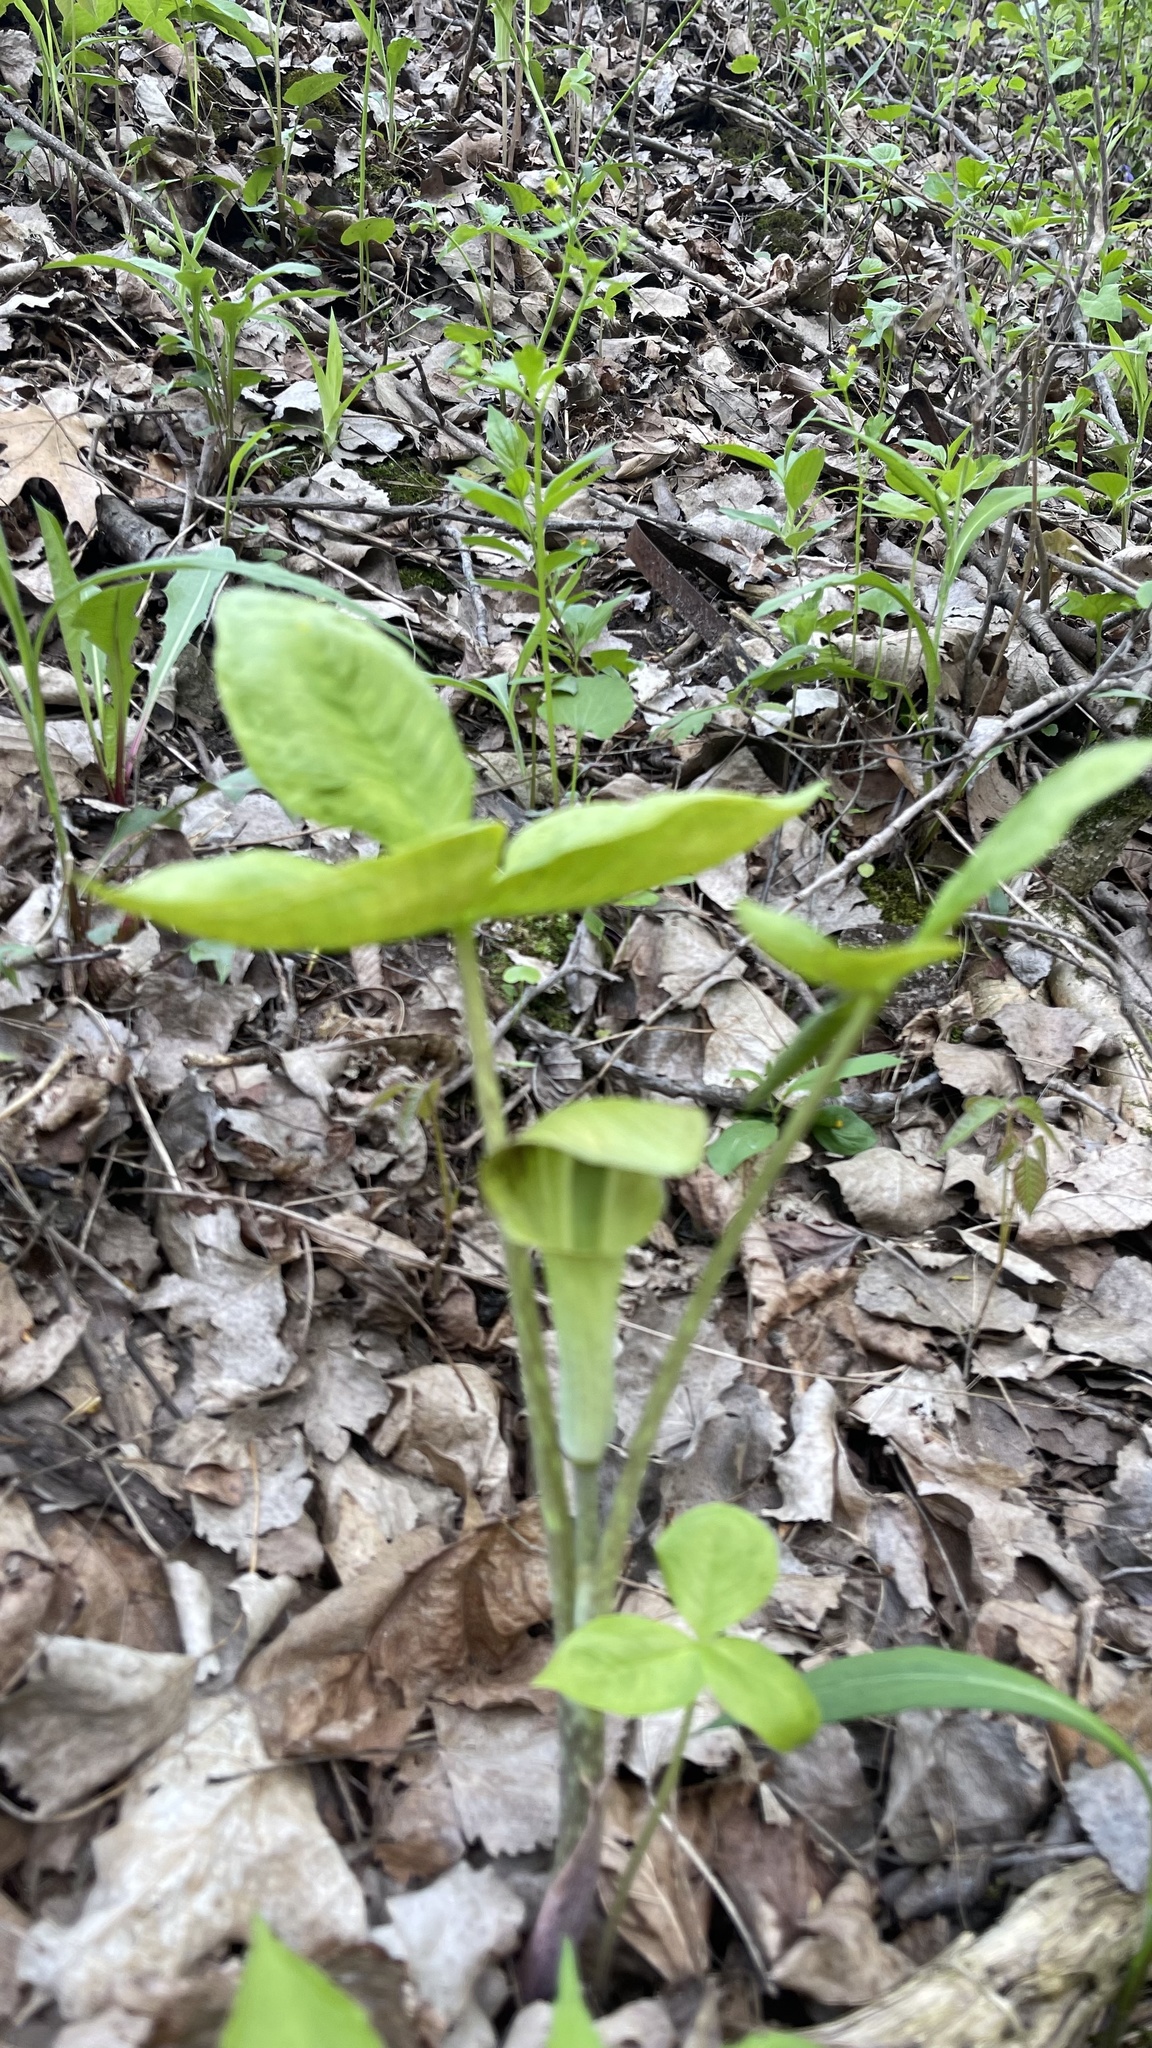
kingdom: Plantae
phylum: Tracheophyta
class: Liliopsida
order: Alismatales
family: Araceae
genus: Arisaema
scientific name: Arisaema triphyllum
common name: Jack-in-the-pulpit
